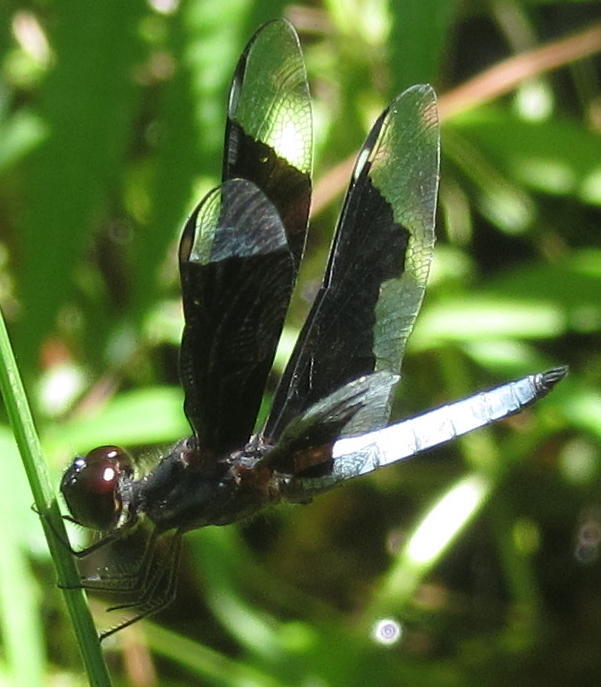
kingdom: Animalia
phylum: Arthropoda
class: Insecta
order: Odonata
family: Libellulidae
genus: Palpopleura
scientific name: Palpopleura lucia
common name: Lucia widow
